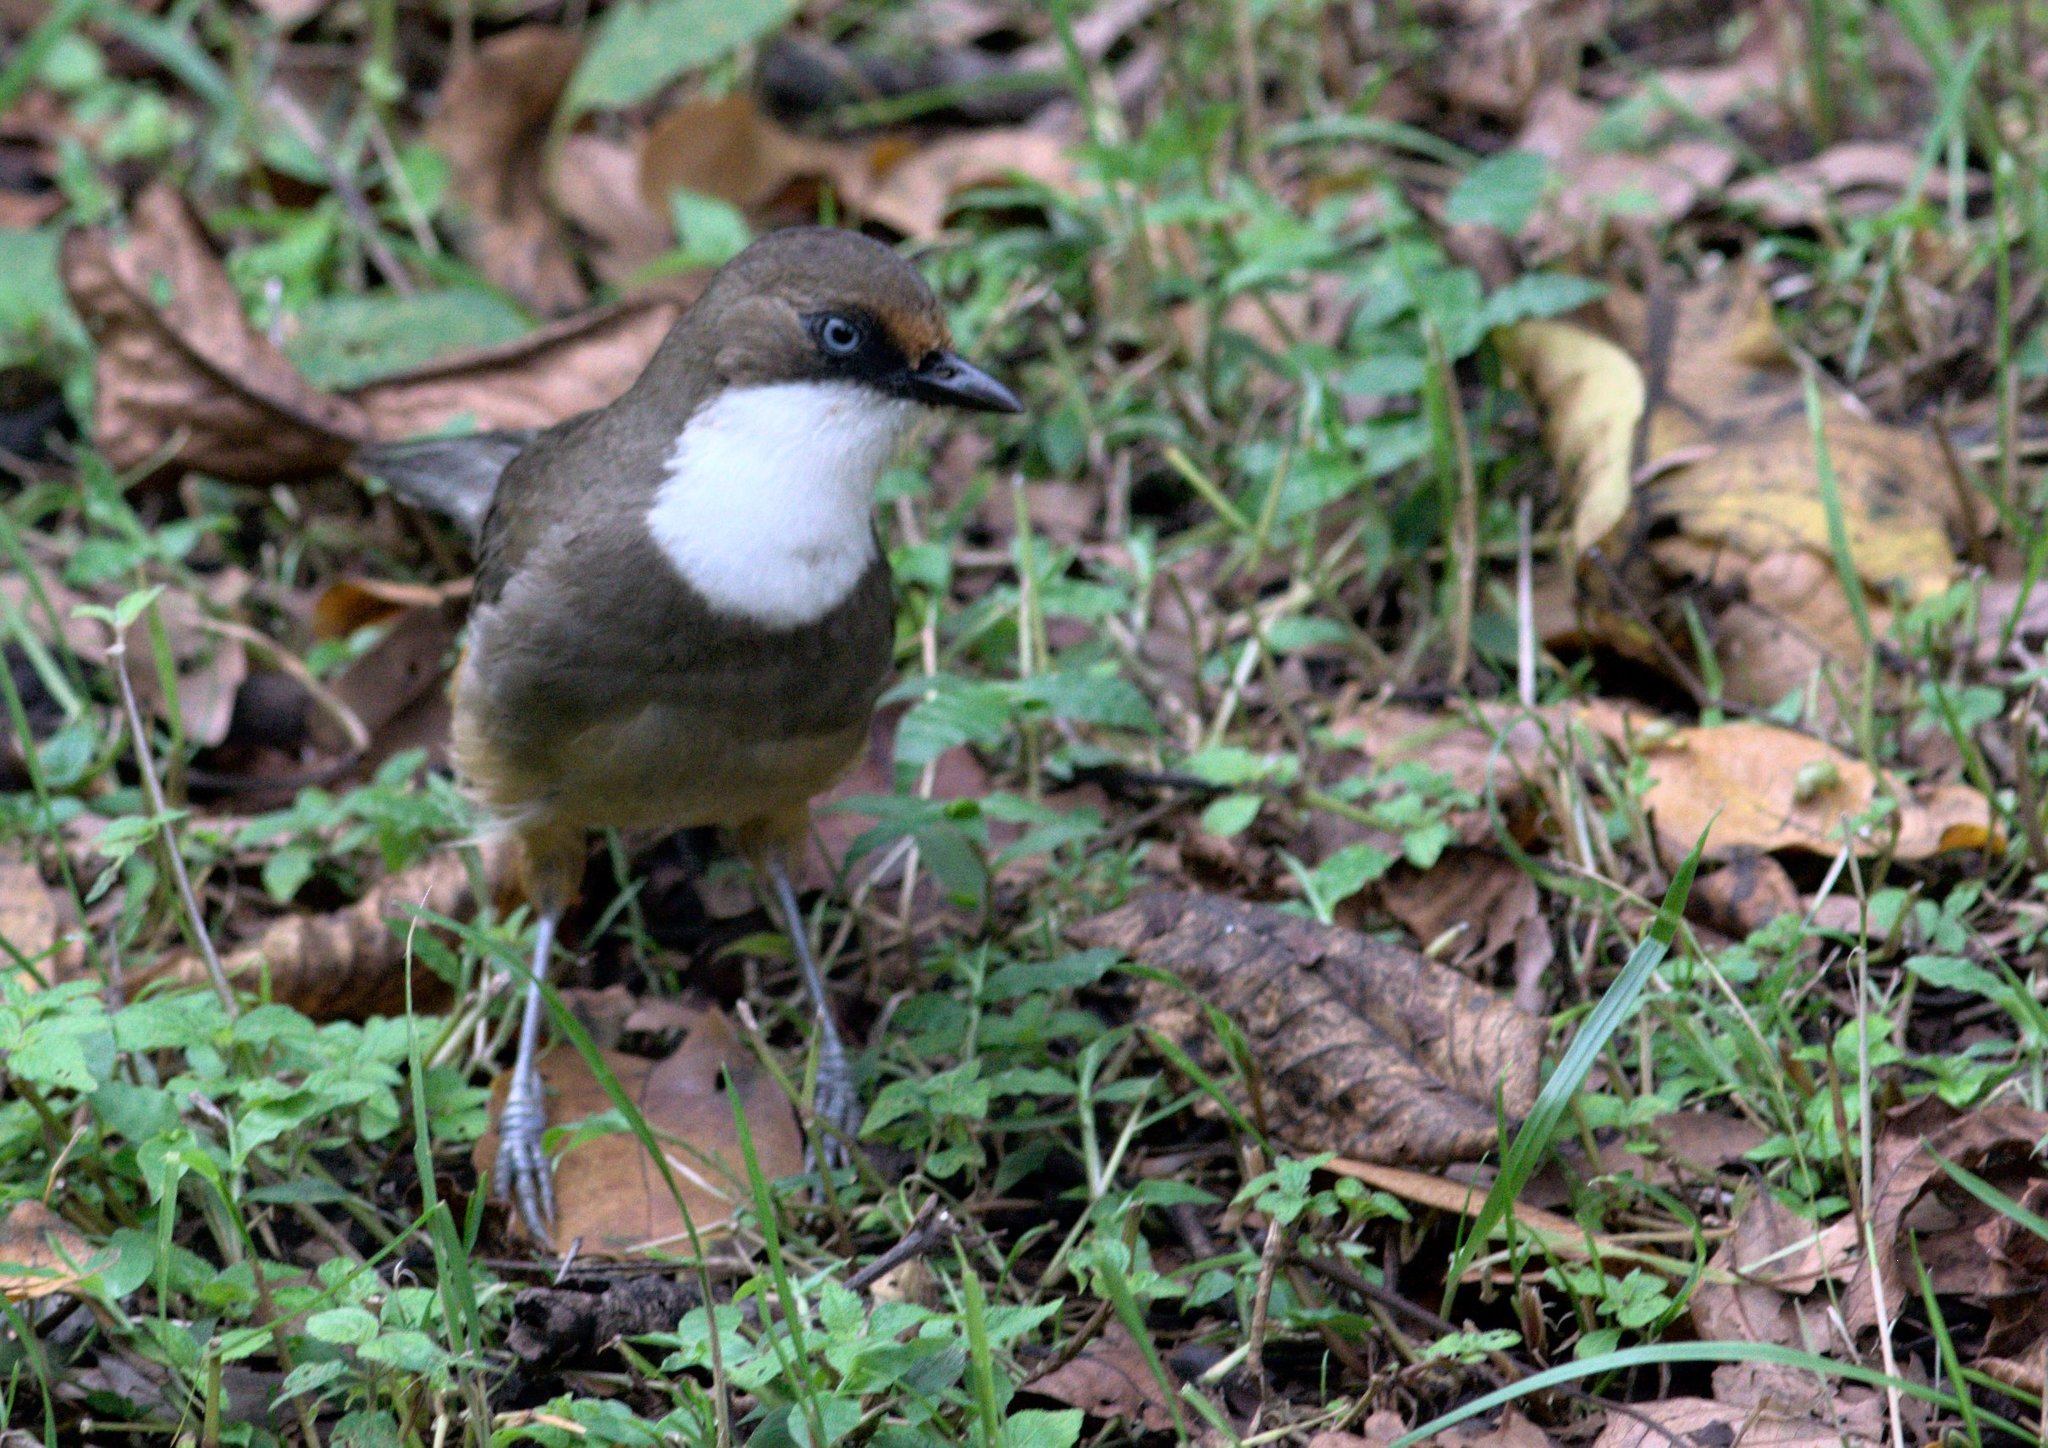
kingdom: Animalia
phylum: Chordata
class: Aves
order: Passeriformes
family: Leiothrichidae
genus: Garrulax
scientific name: Garrulax albogularis
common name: White-throated laughingthrush
